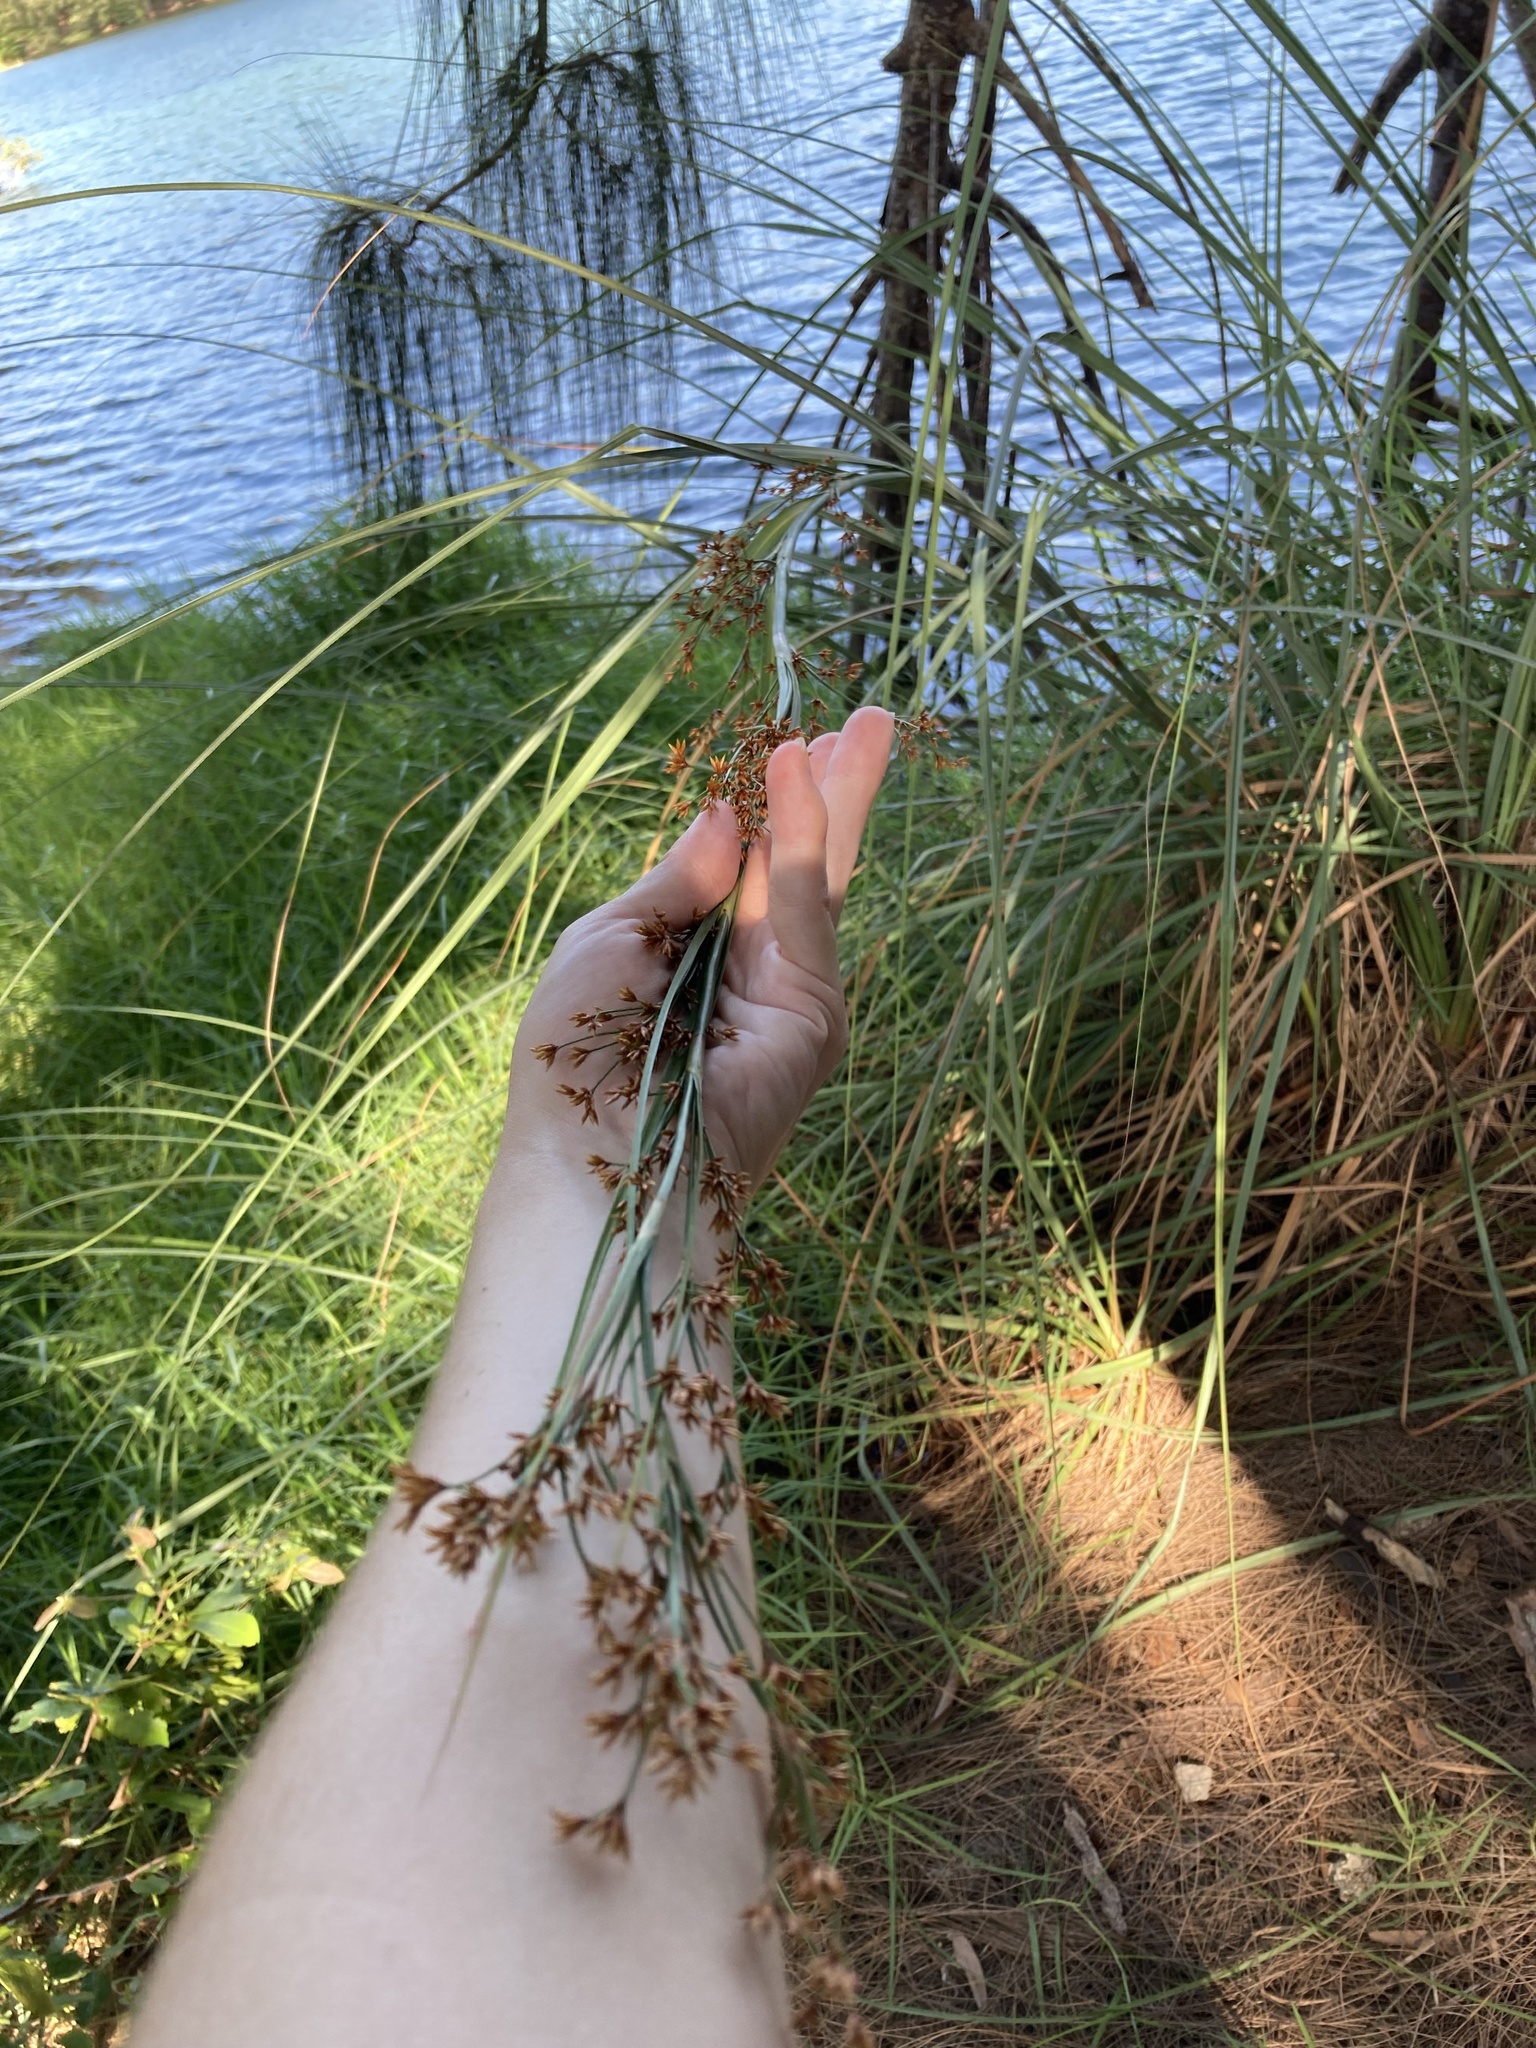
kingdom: Plantae
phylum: Tracheophyta
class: Liliopsida
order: Poales
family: Cyperaceae
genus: Cladium
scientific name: Cladium mariscus
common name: Great fen-sedge
